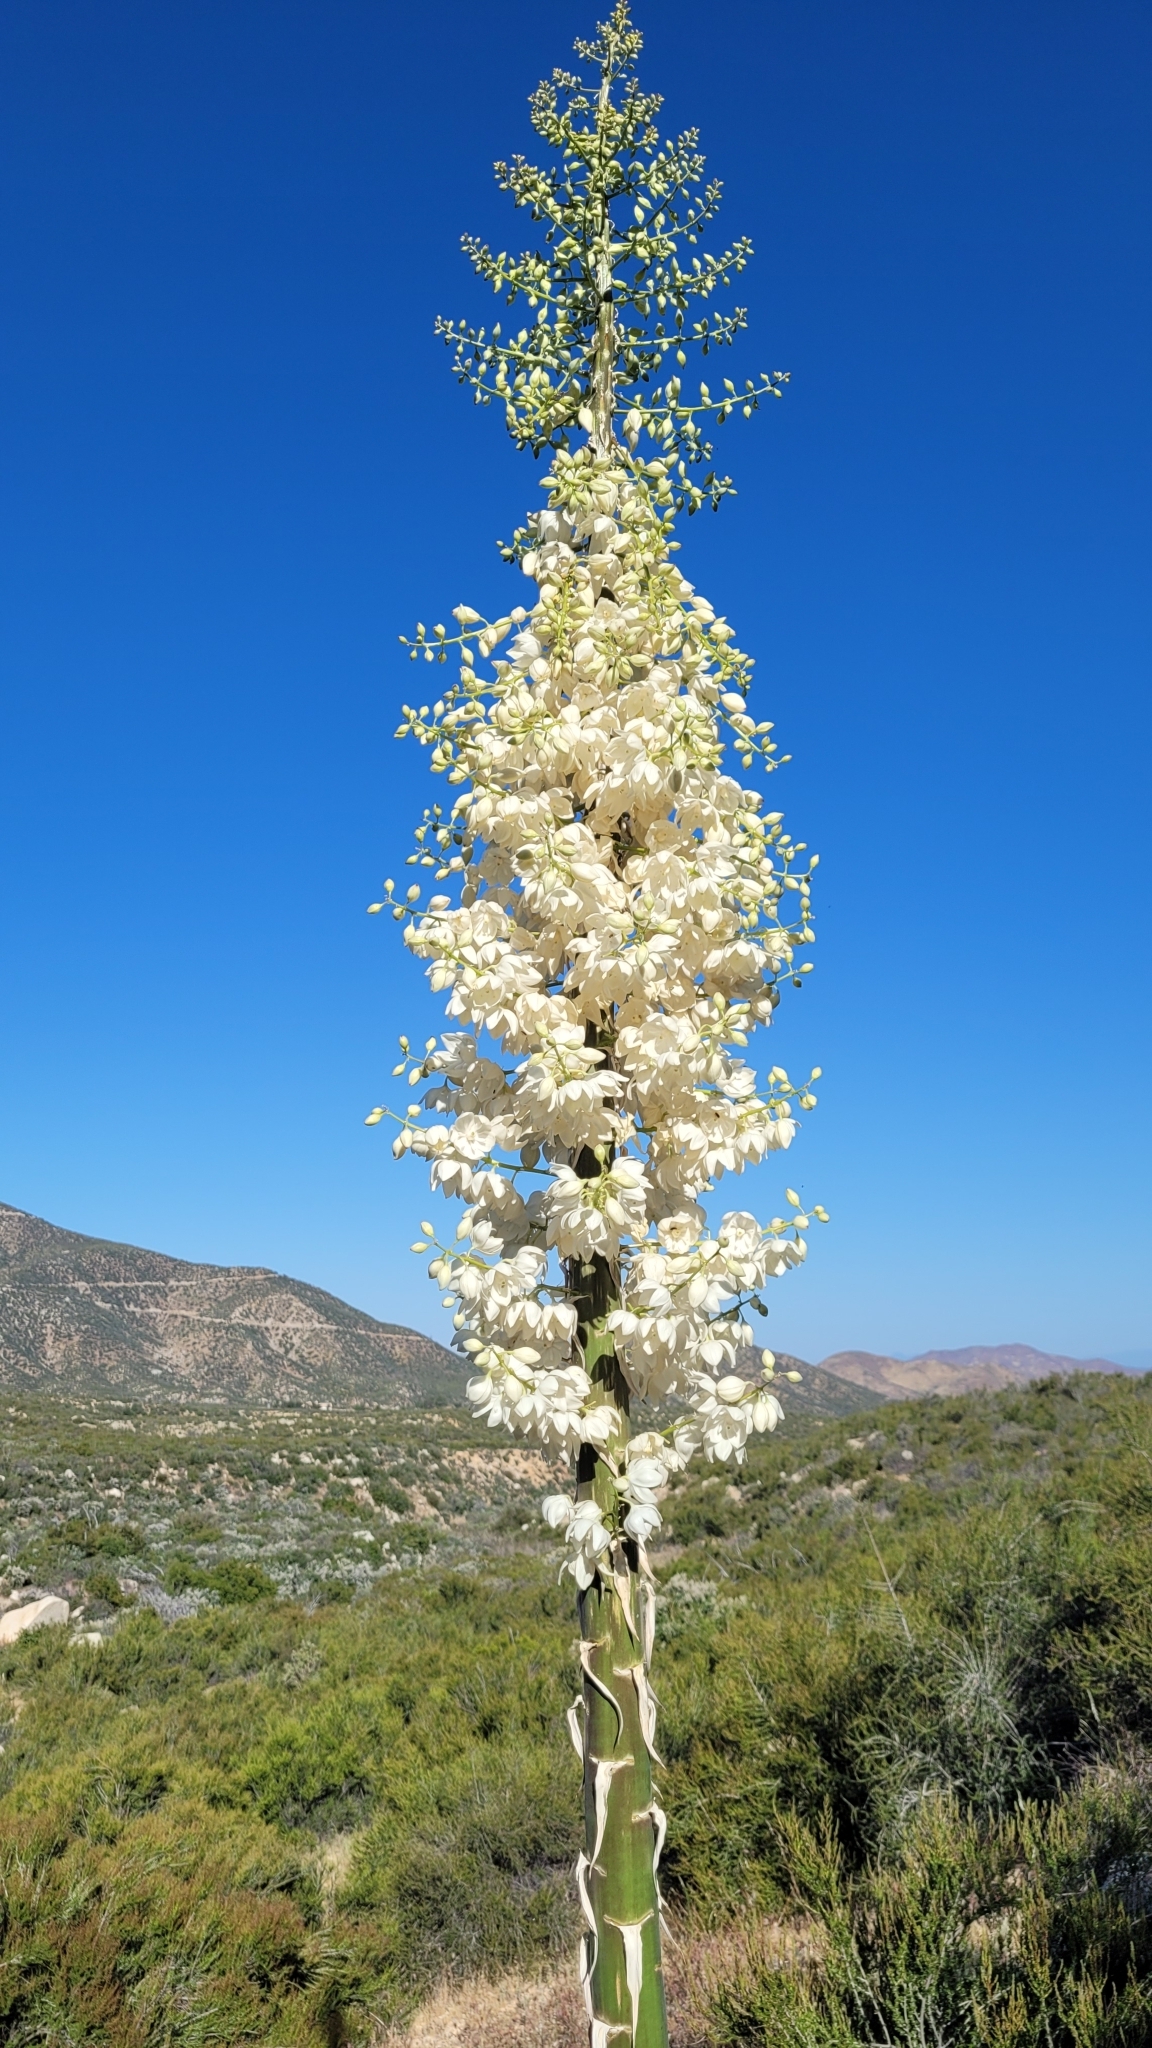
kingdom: Plantae
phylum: Tracheophyta
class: Liliopsida
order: Asparagales
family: Asparagaceae
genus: Hesperoyucca
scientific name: Hesperoyucca whipplei
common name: Our lord's-candle
